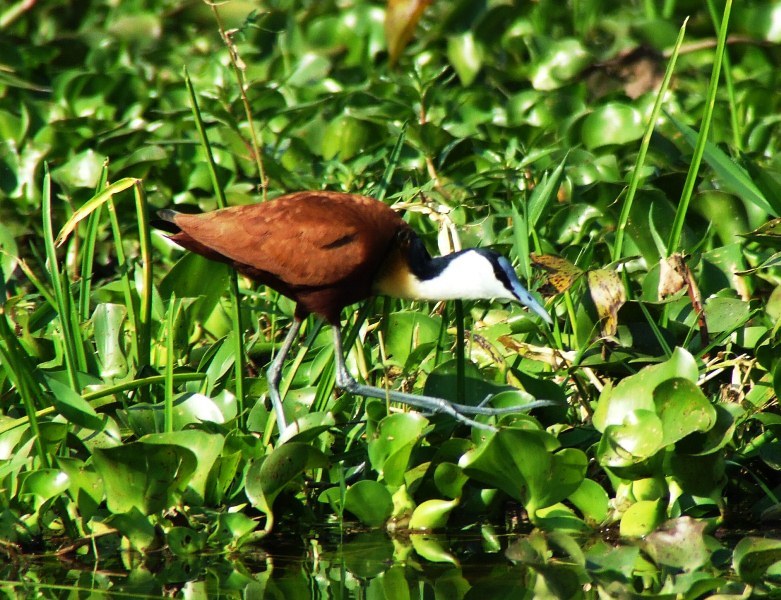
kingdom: Animalia
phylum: Chordata
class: Aves
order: Charadriiformes
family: Jacanidae
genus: Actophilornis
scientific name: Actophilornis africanus
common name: African jacana
